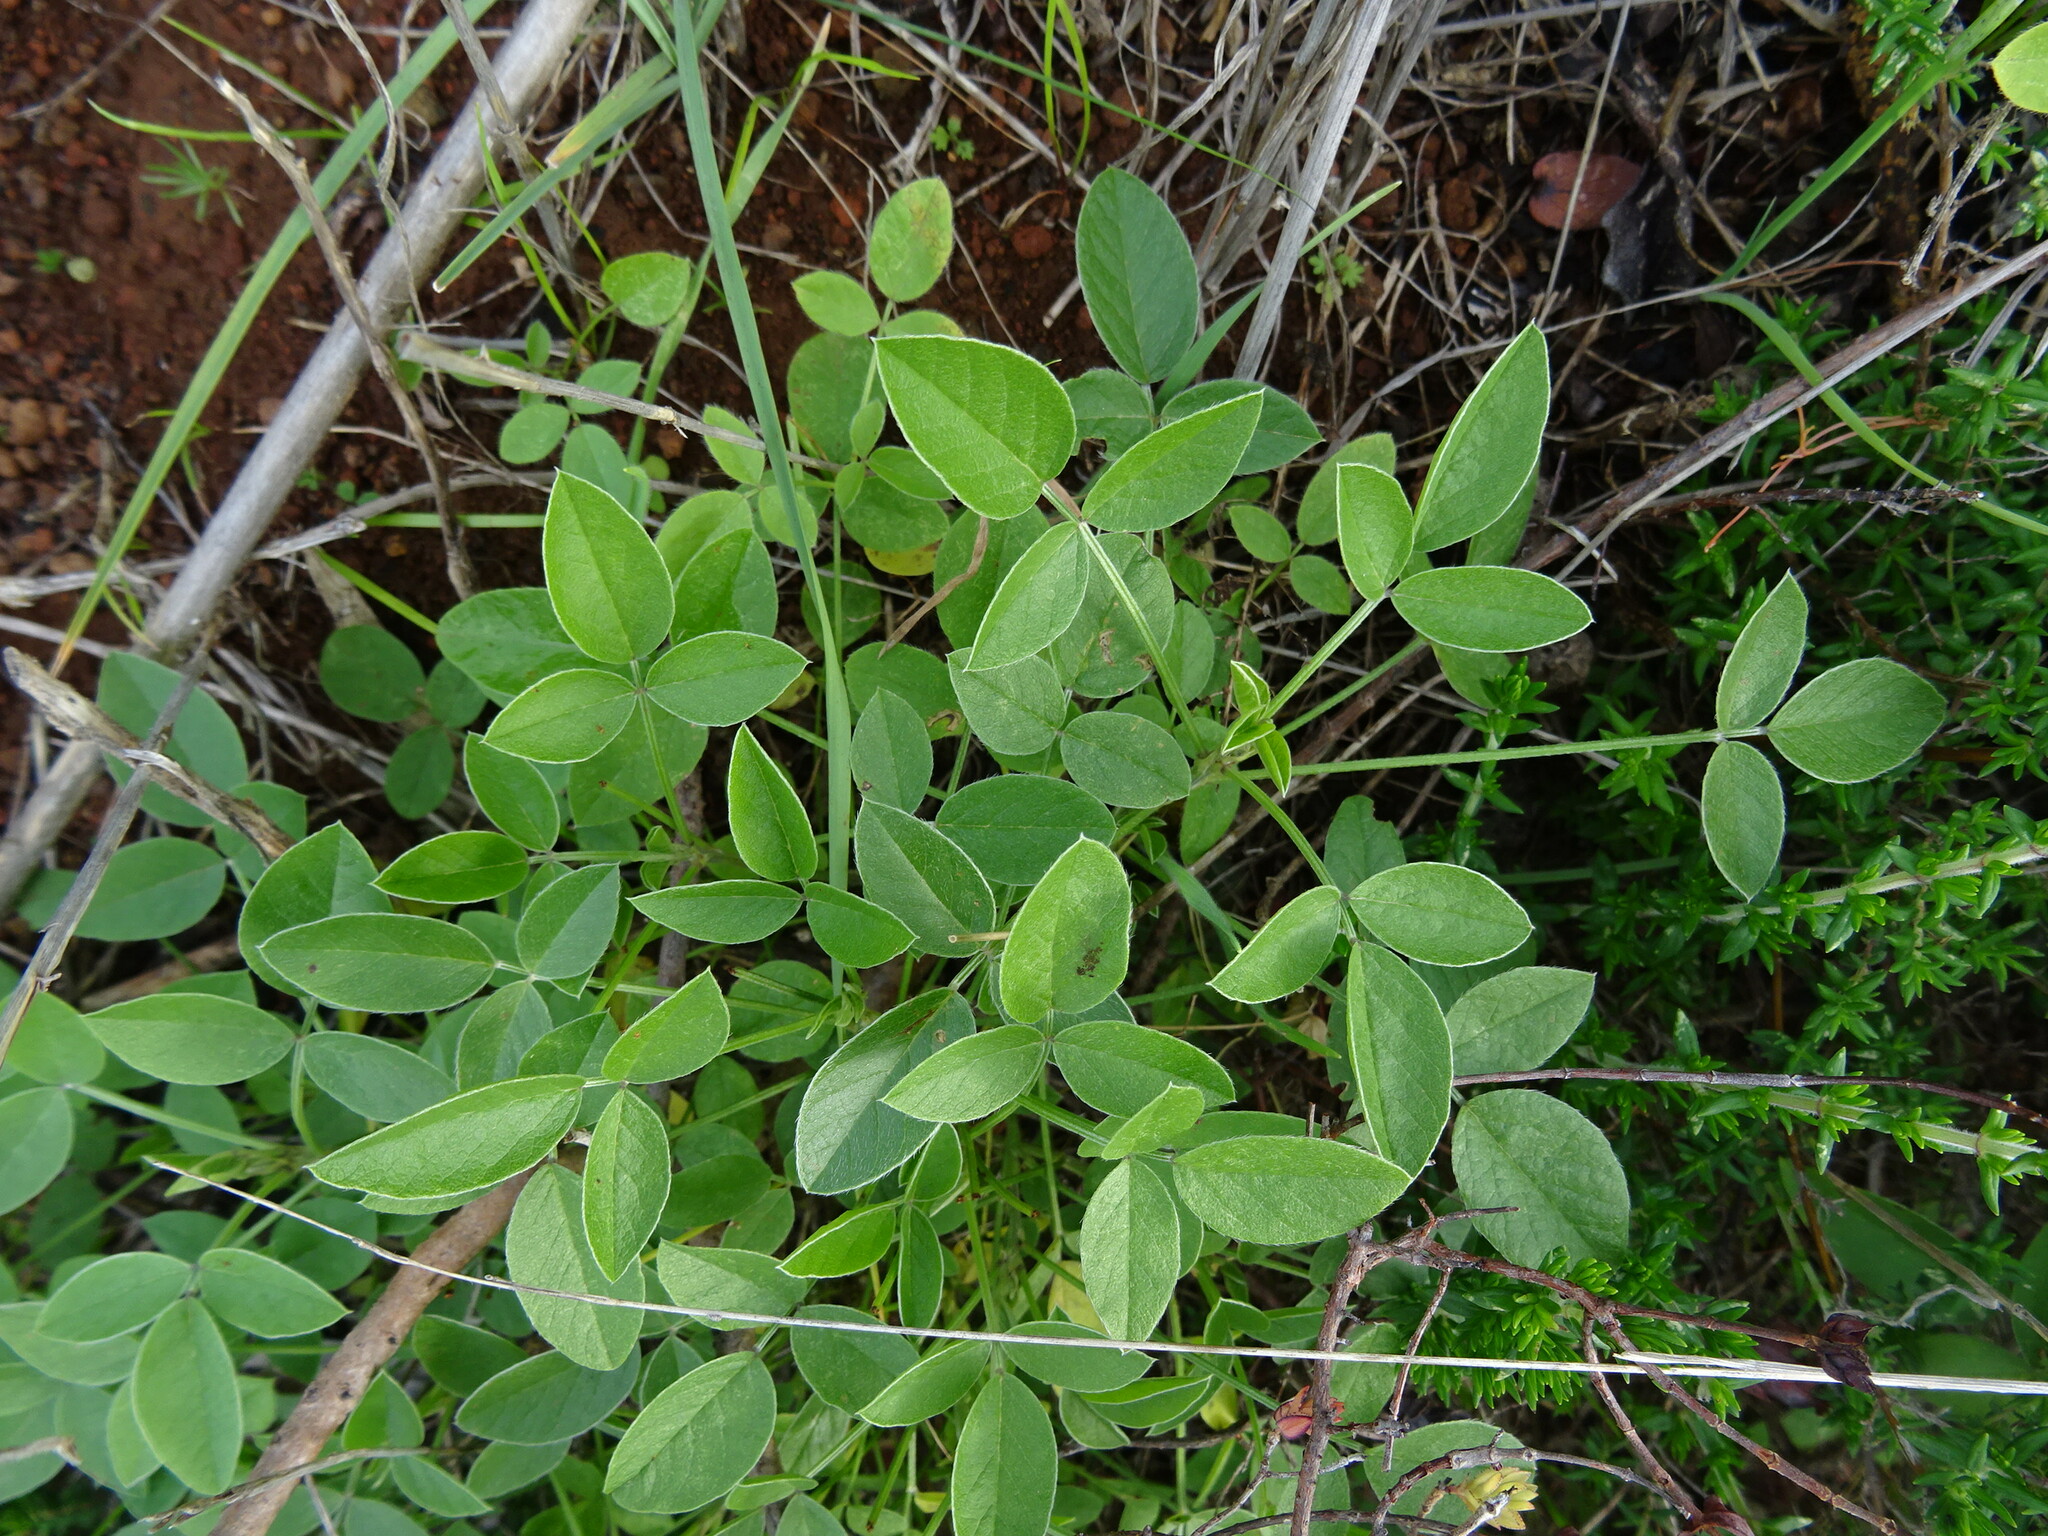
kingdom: Plantae
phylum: Tracheophyta
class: Magnoliopsida
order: Fabales
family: Fabaceae
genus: Bituminaria
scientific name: Bituminaria bituminosa
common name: Arabian pea
